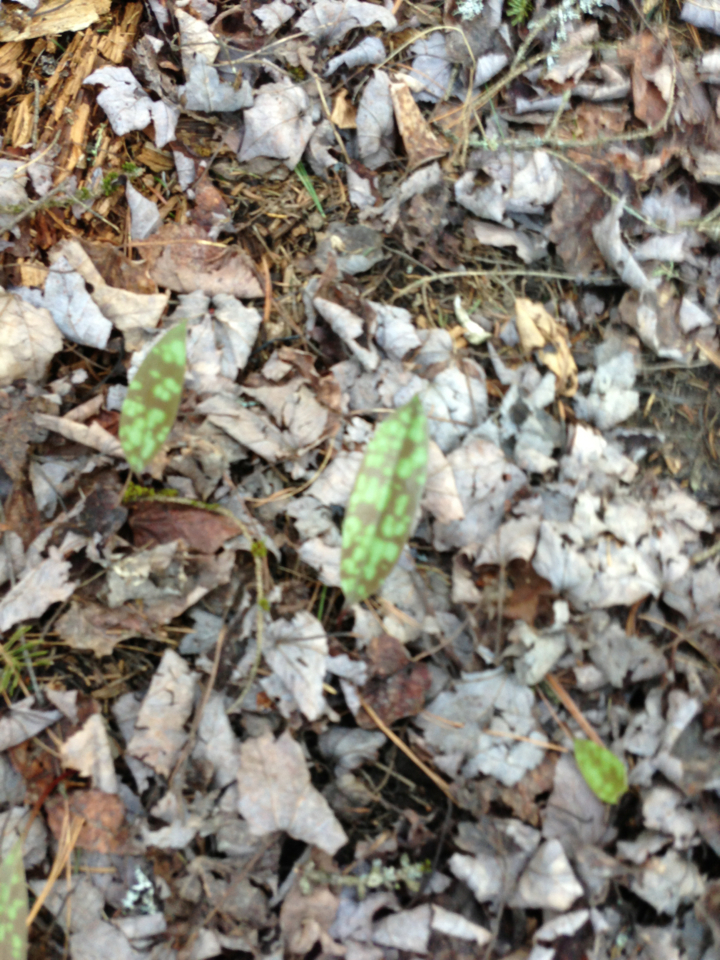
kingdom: Plantae
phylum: Tracheophyta
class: Liliopsida
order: Liliales
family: Liliaceae
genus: Erythronium
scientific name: Erythronium americanum
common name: Yellow adder's-tongue
